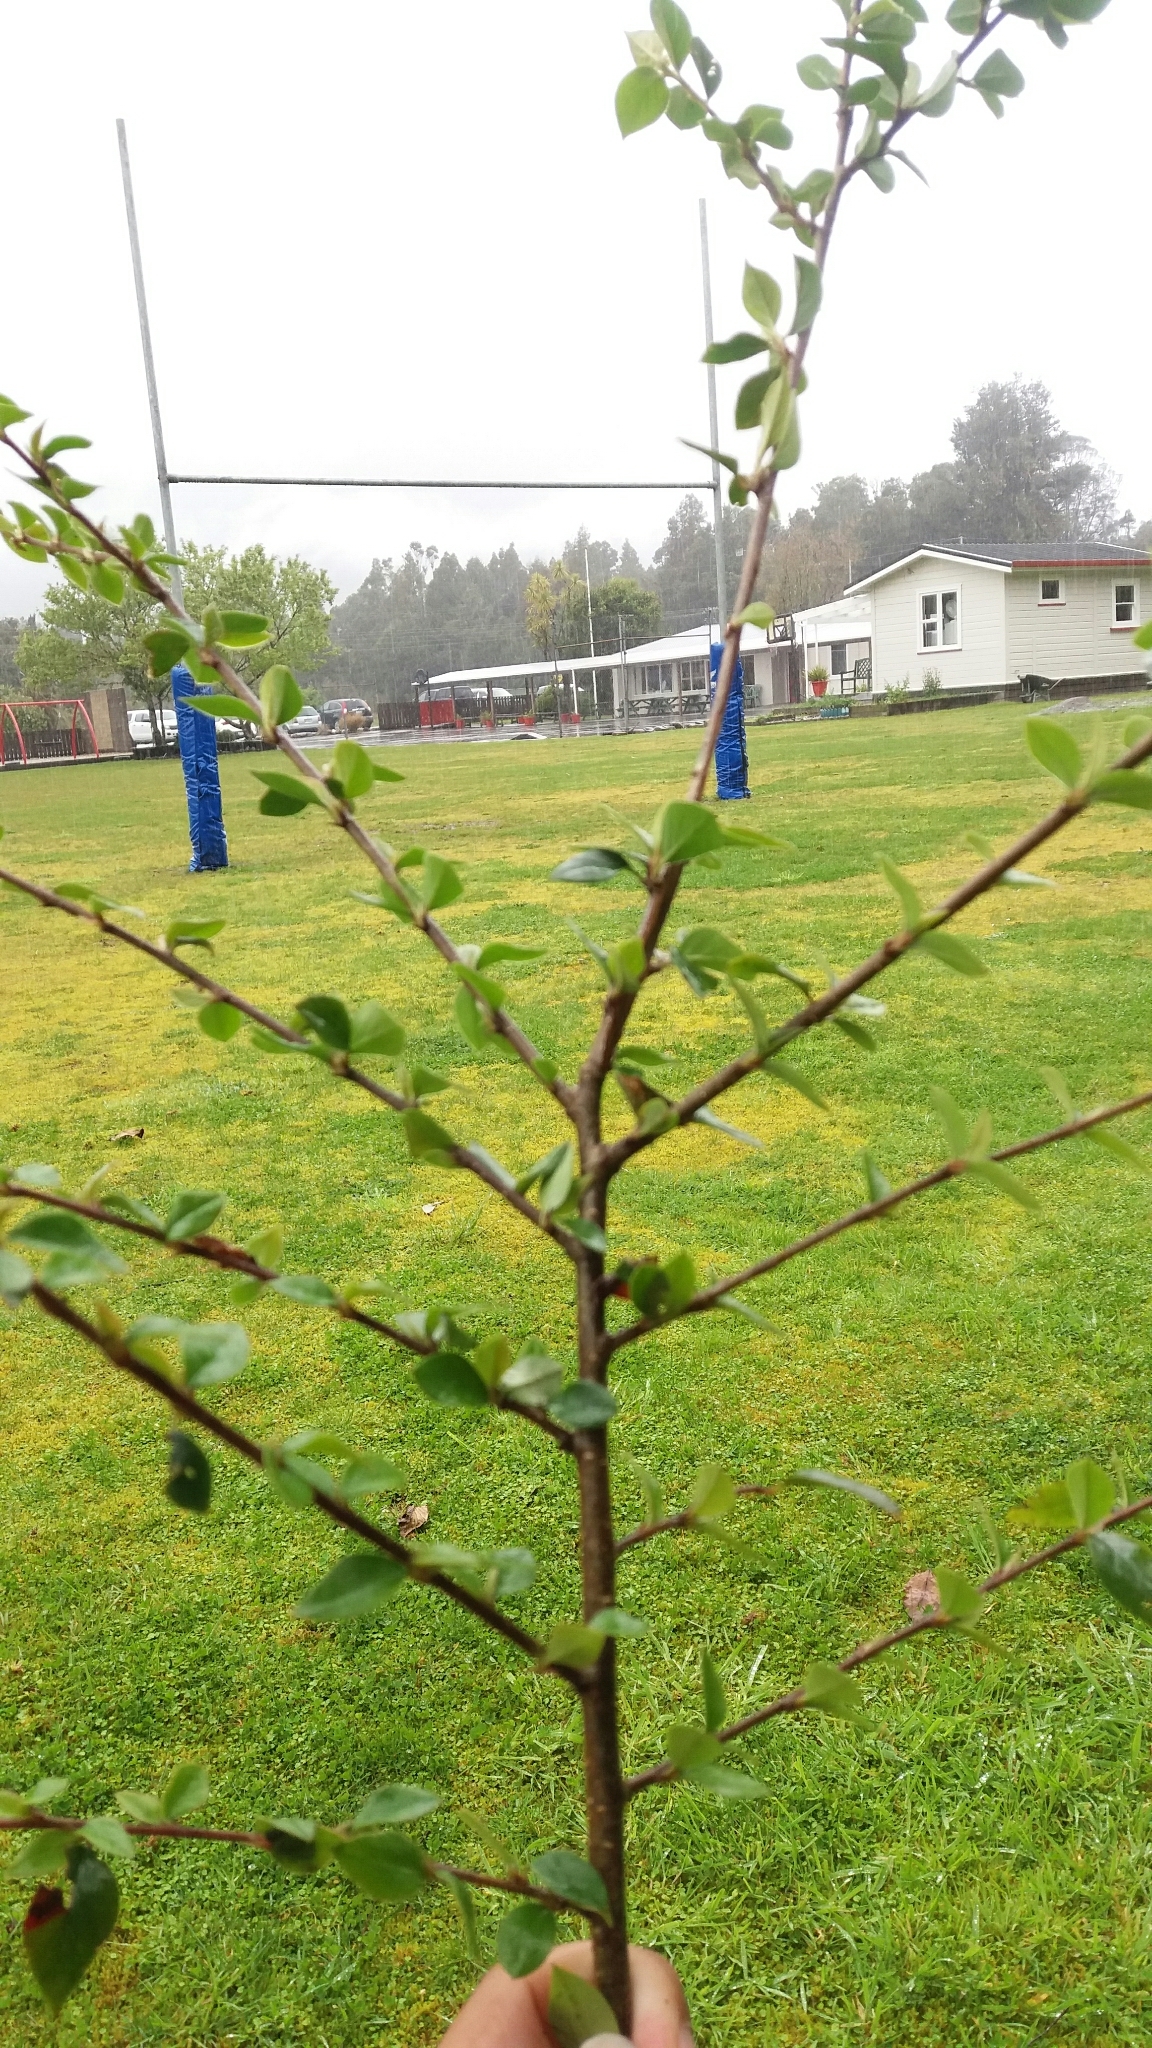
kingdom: Plantae
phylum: Tracheophyta
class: Magnoliopsida
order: Rosales
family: Rosaceae
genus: Cotoneaster
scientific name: Cotoneaster simonsii
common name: Himalayan cotoneaster
